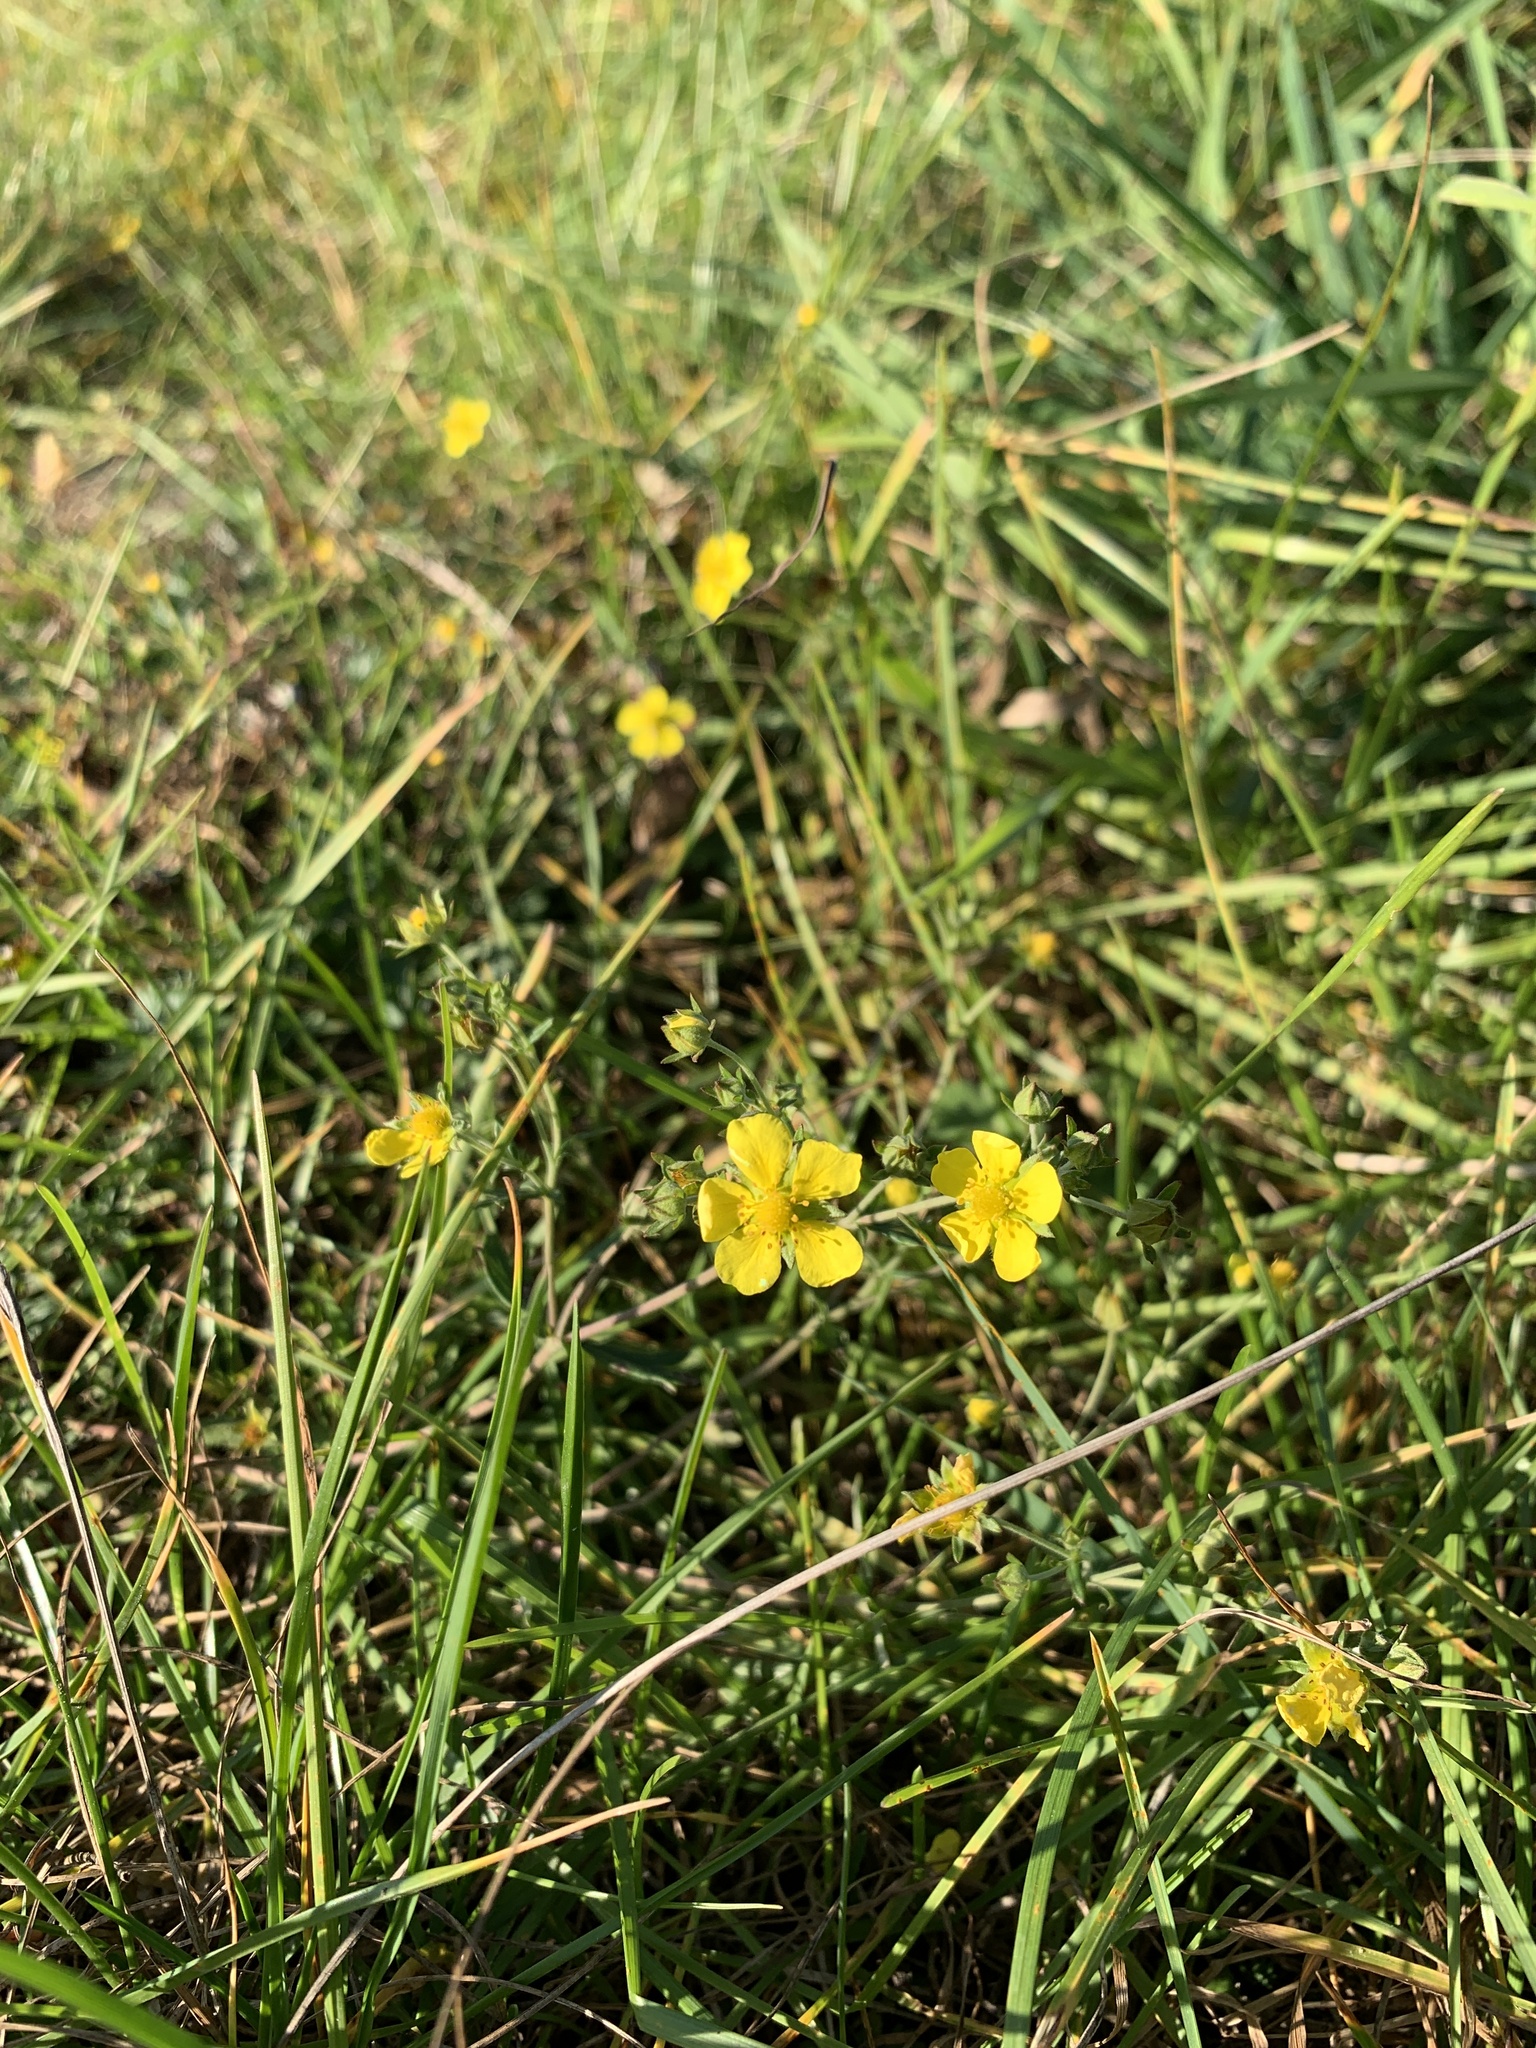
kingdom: Plantae
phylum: Tracheophyta
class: Magnoliopsida
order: Rosales
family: Rosaceae
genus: Potentilla
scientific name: Potentilla argentea
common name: Hoary cinquefoil
